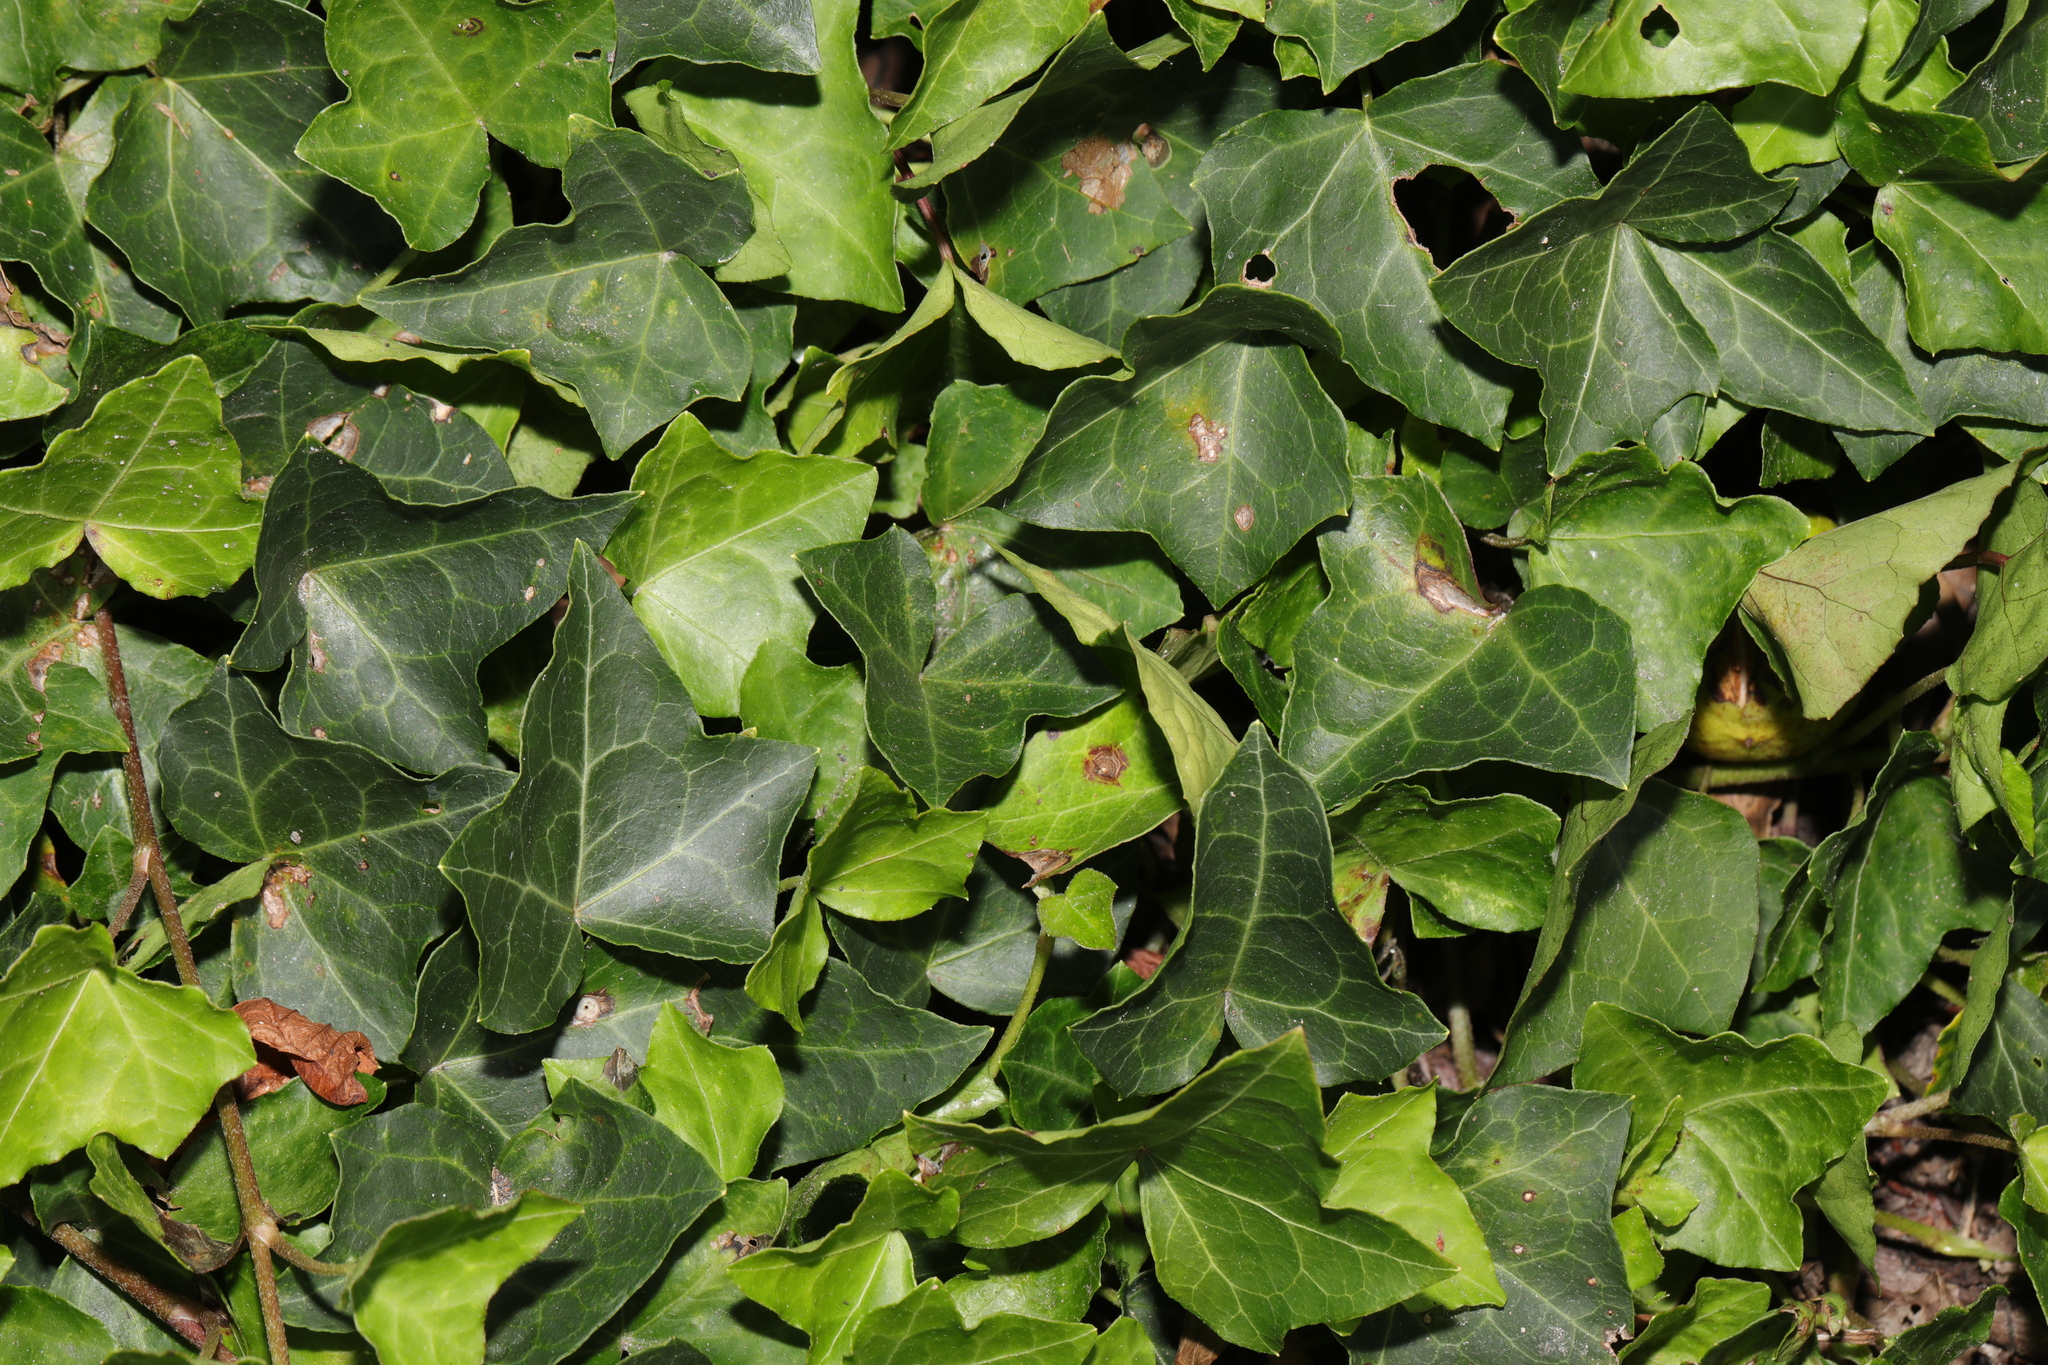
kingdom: Plantae
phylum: Tracheophyta
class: Magnoliopsida
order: Apiales
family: Araliaceae
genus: Hedera
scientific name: Hedera helix
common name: Ivy
